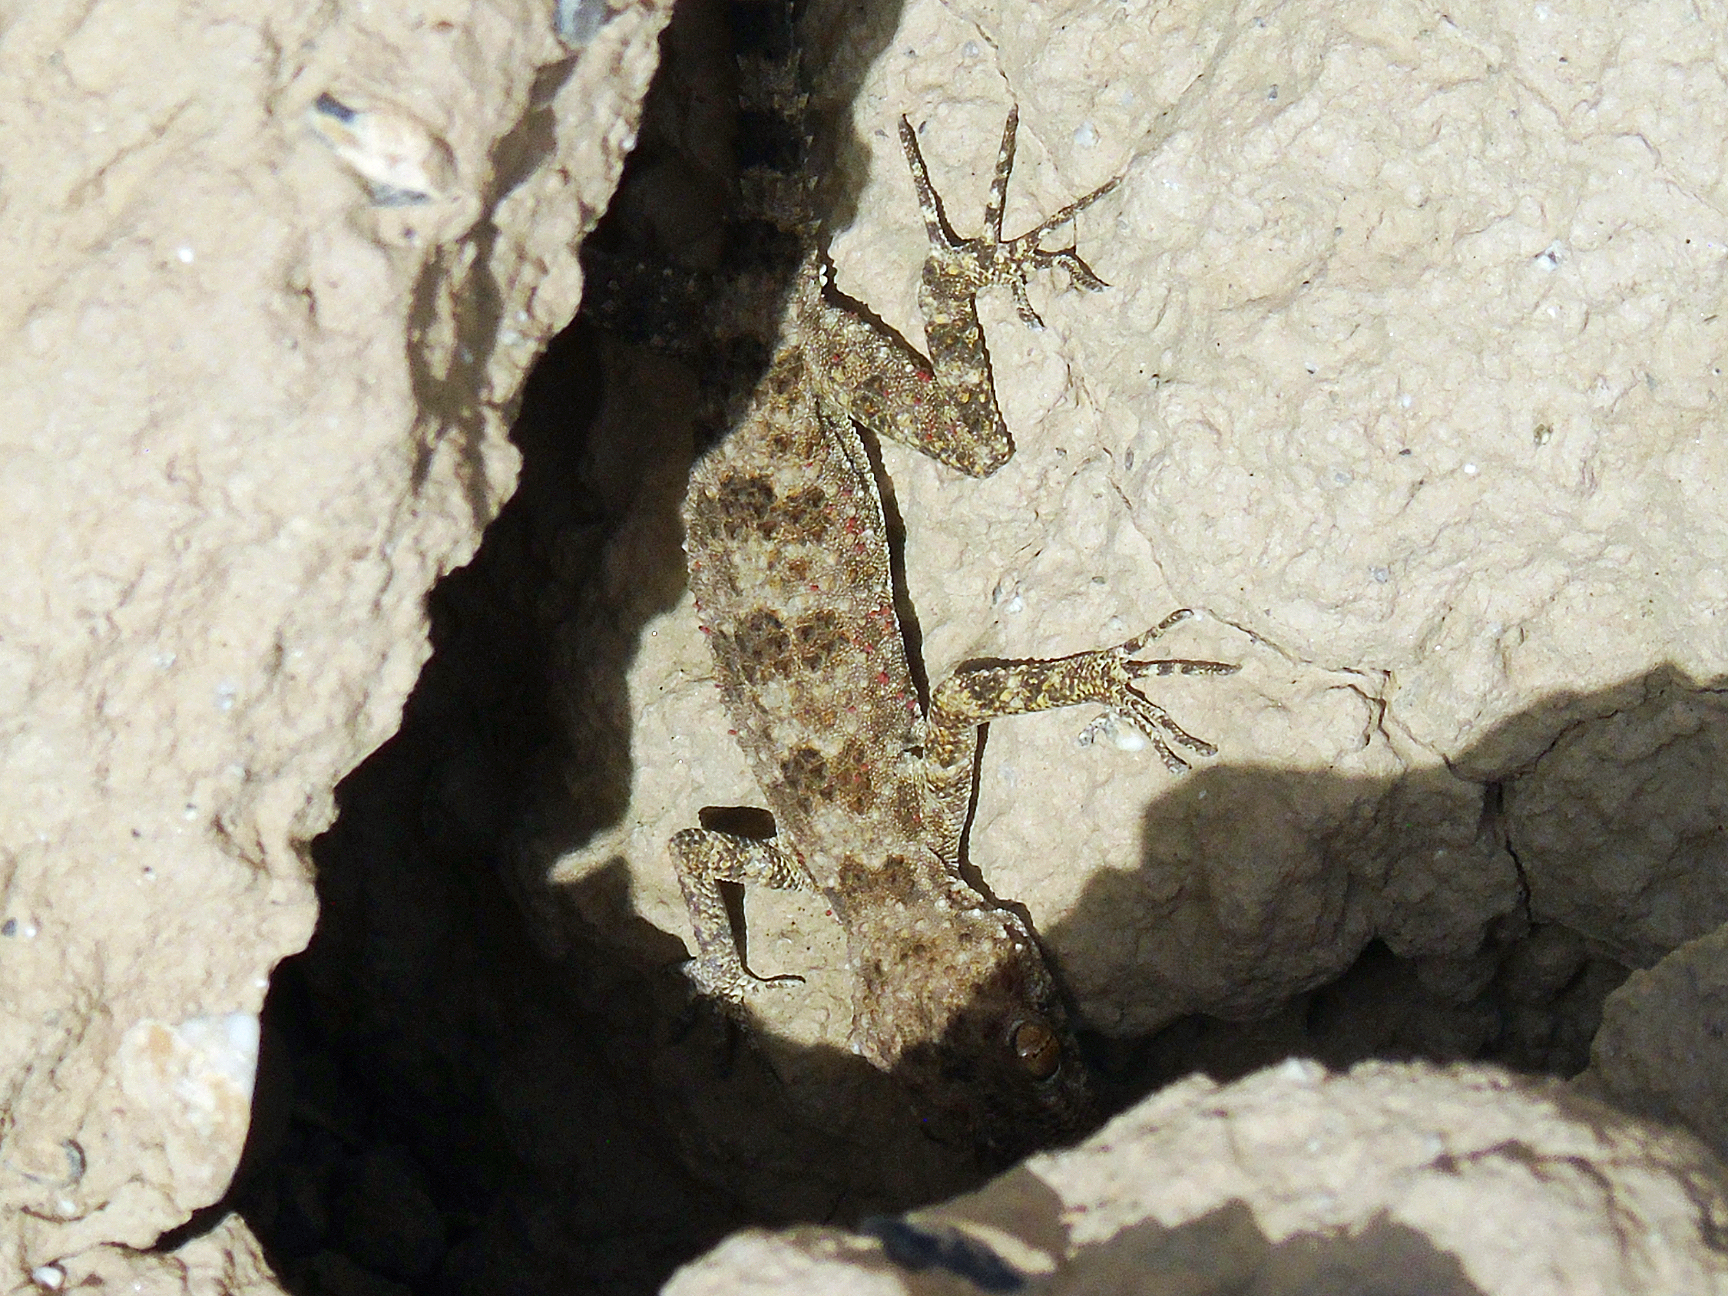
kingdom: Animalia
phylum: Chordata
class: Squamata
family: Gekkonidae
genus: Tenuidactylus
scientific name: Tenuidactylus fedtschenkoi
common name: Turkestan thin-toed gecko
